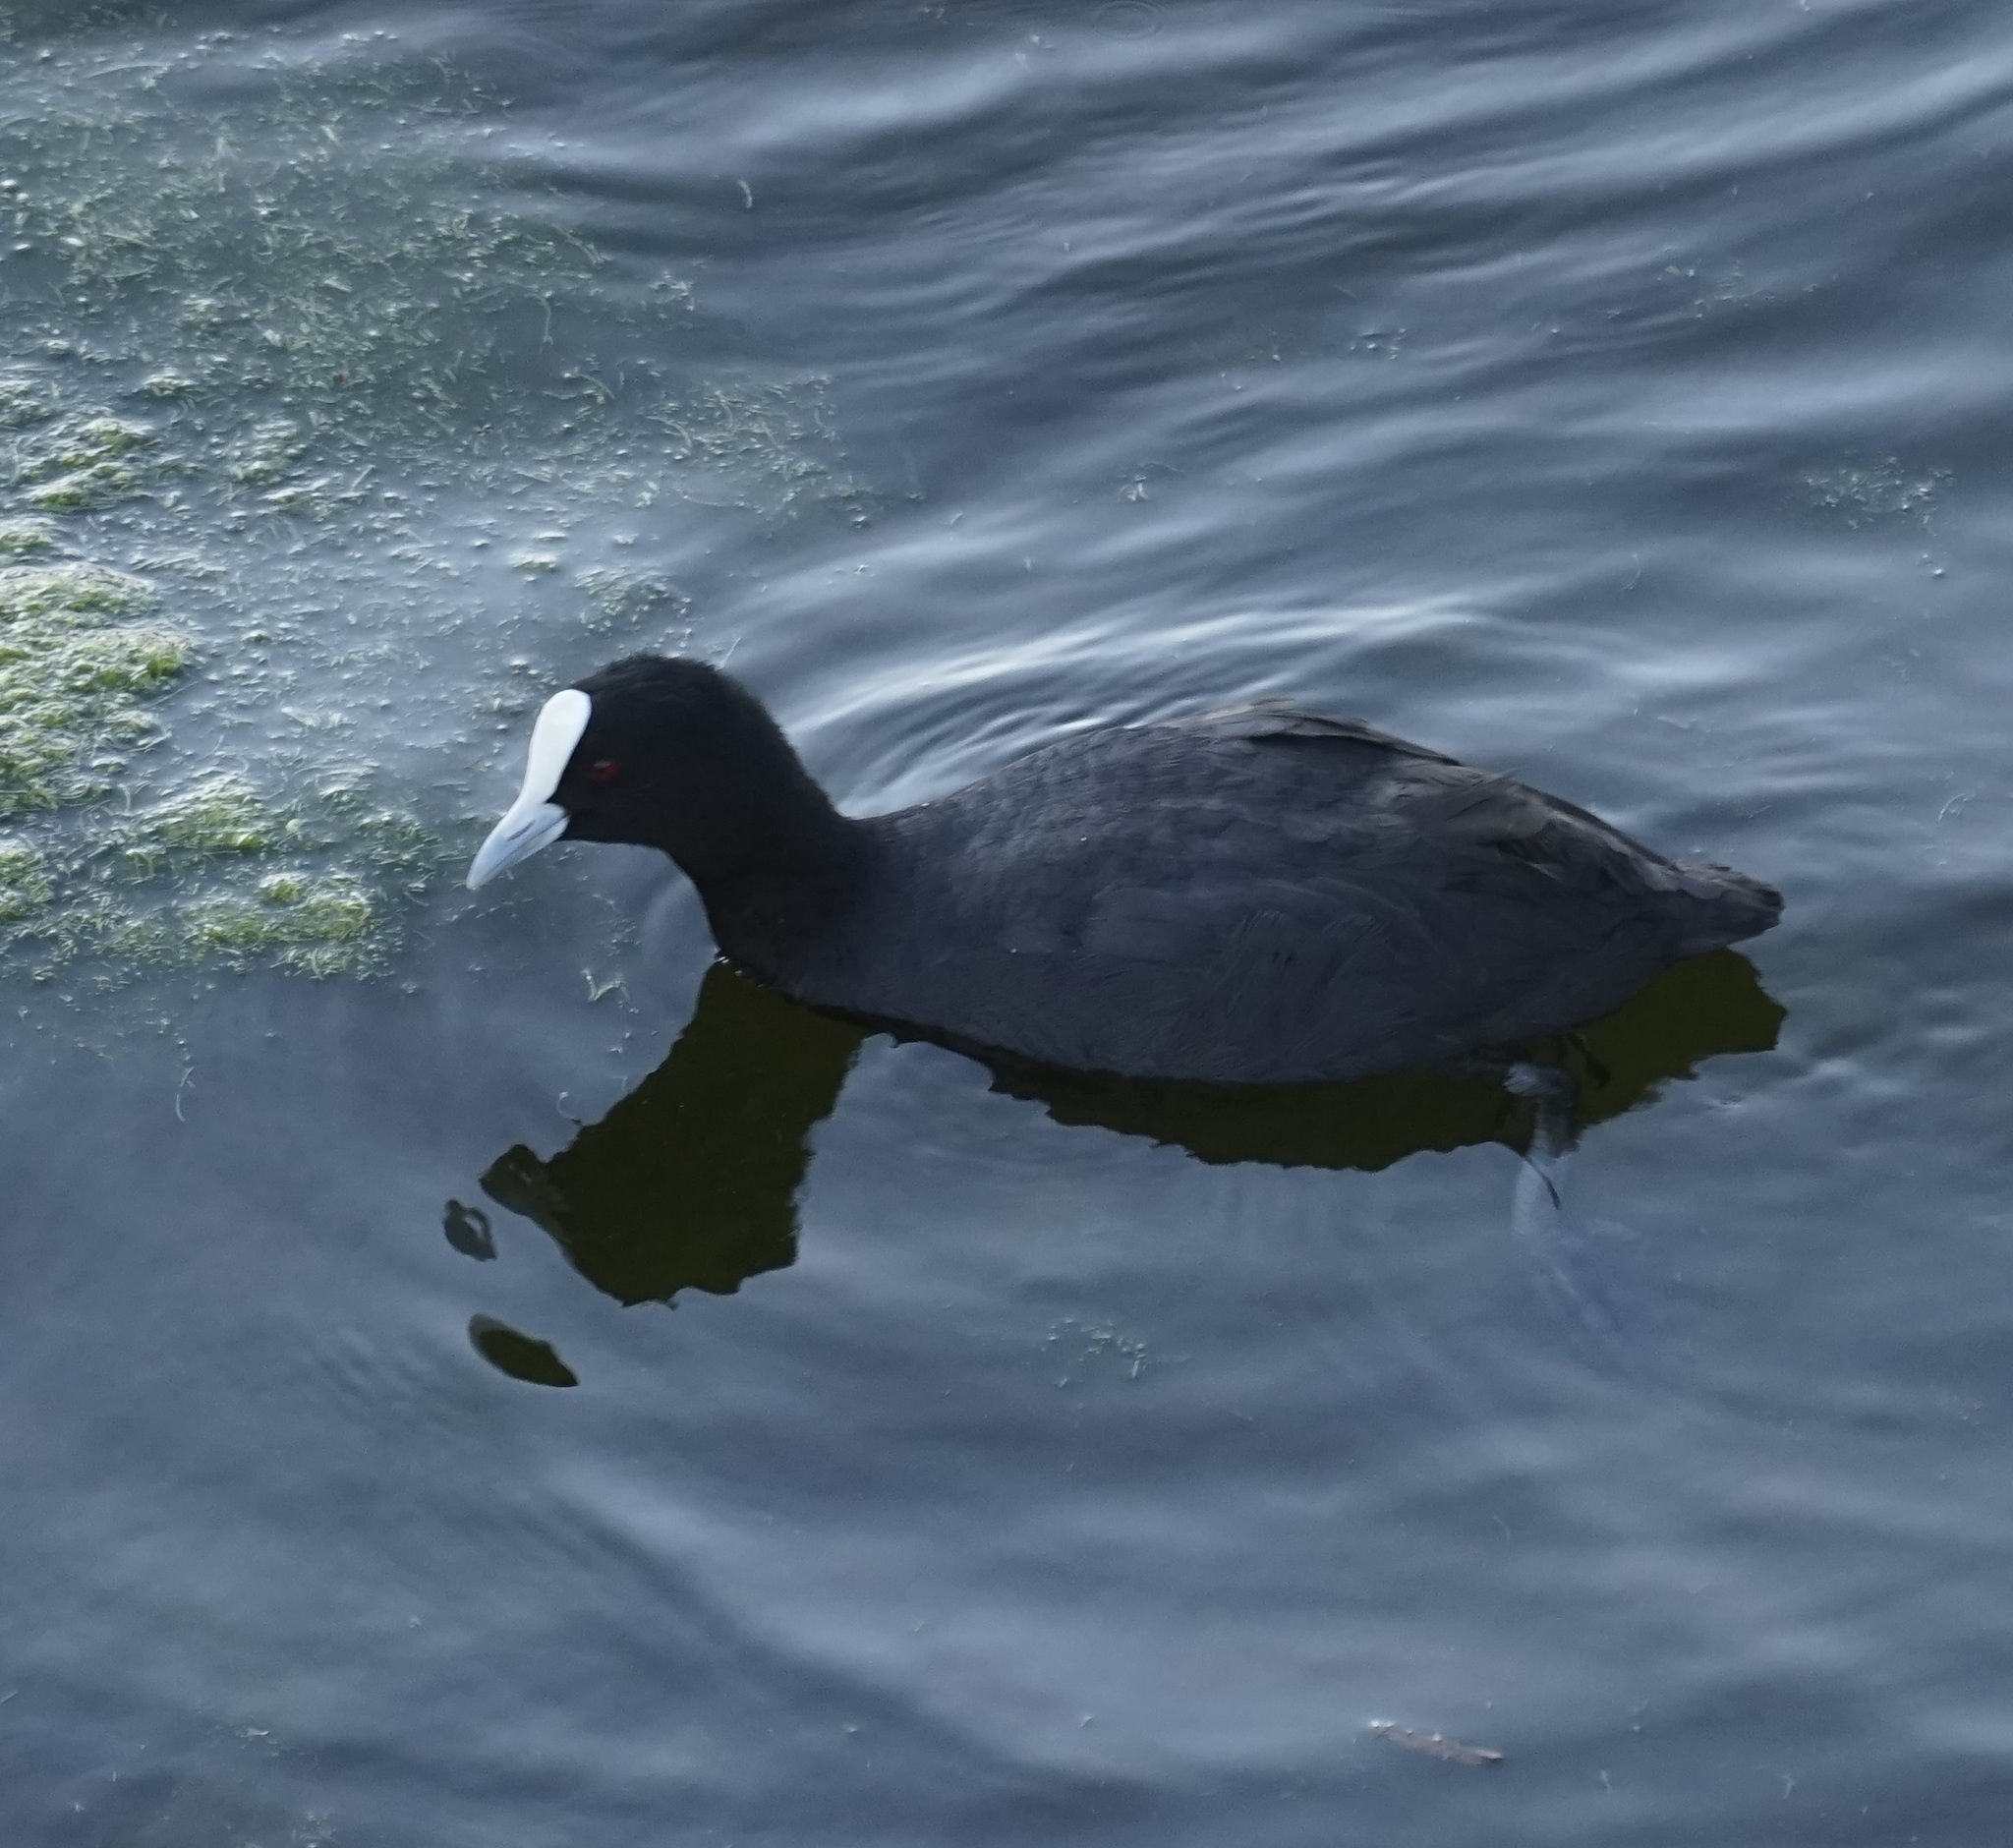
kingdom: Animalia
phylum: Chordata
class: Aves
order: Gruiformes
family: Rallidae
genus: Fulica
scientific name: Fulica atra
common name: Eurasian coot
